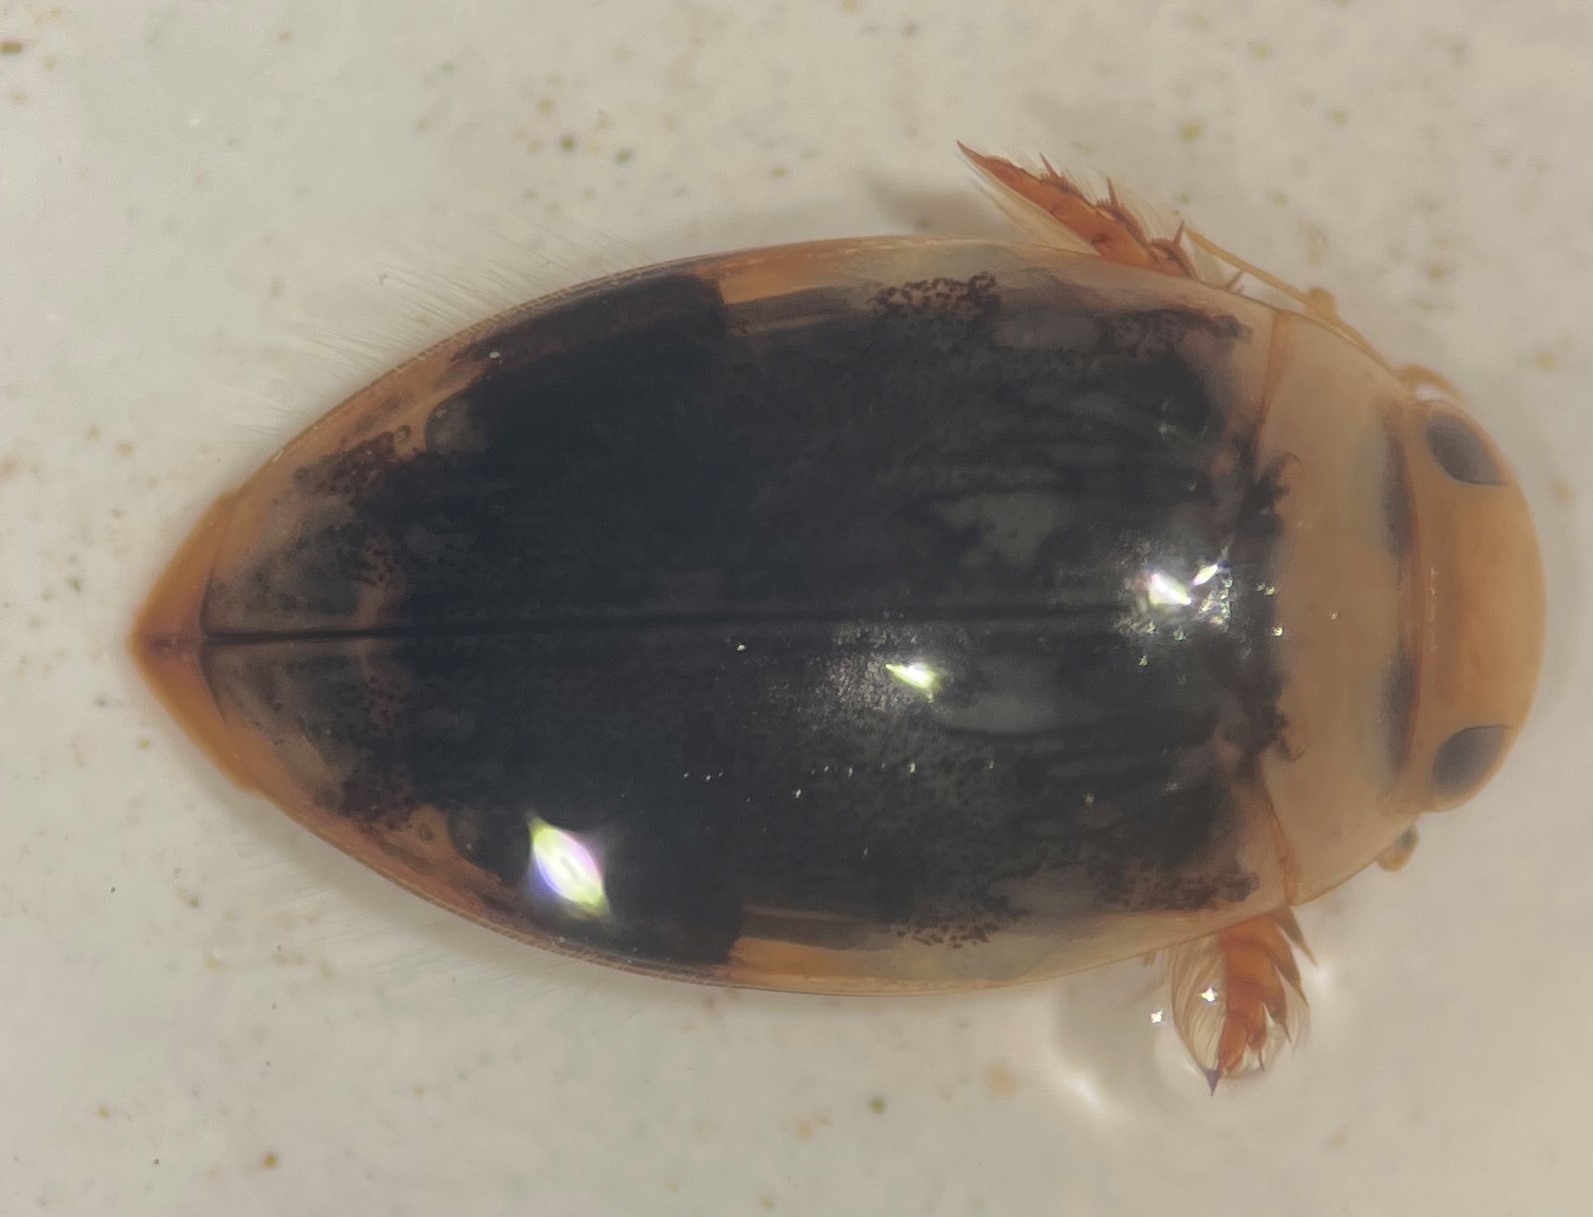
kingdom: Animalia
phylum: Arthropoda
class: Insecta
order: Coleoptera
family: Dytiscidae
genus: Laccophilus
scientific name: Laccophilus fasciatus
